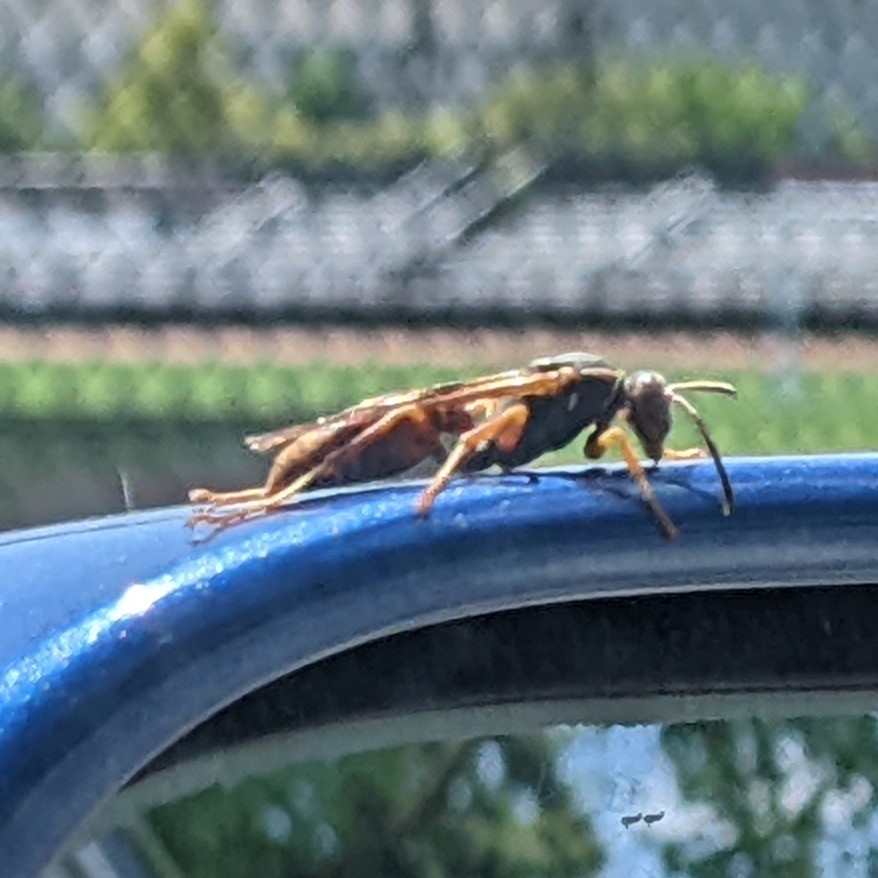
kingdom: Animalia
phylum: Arthropoda
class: Insecta
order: Hymenoptera
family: Eumenidae
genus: Polistes
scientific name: Polistes fuscatus
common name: Dark paper wasp
